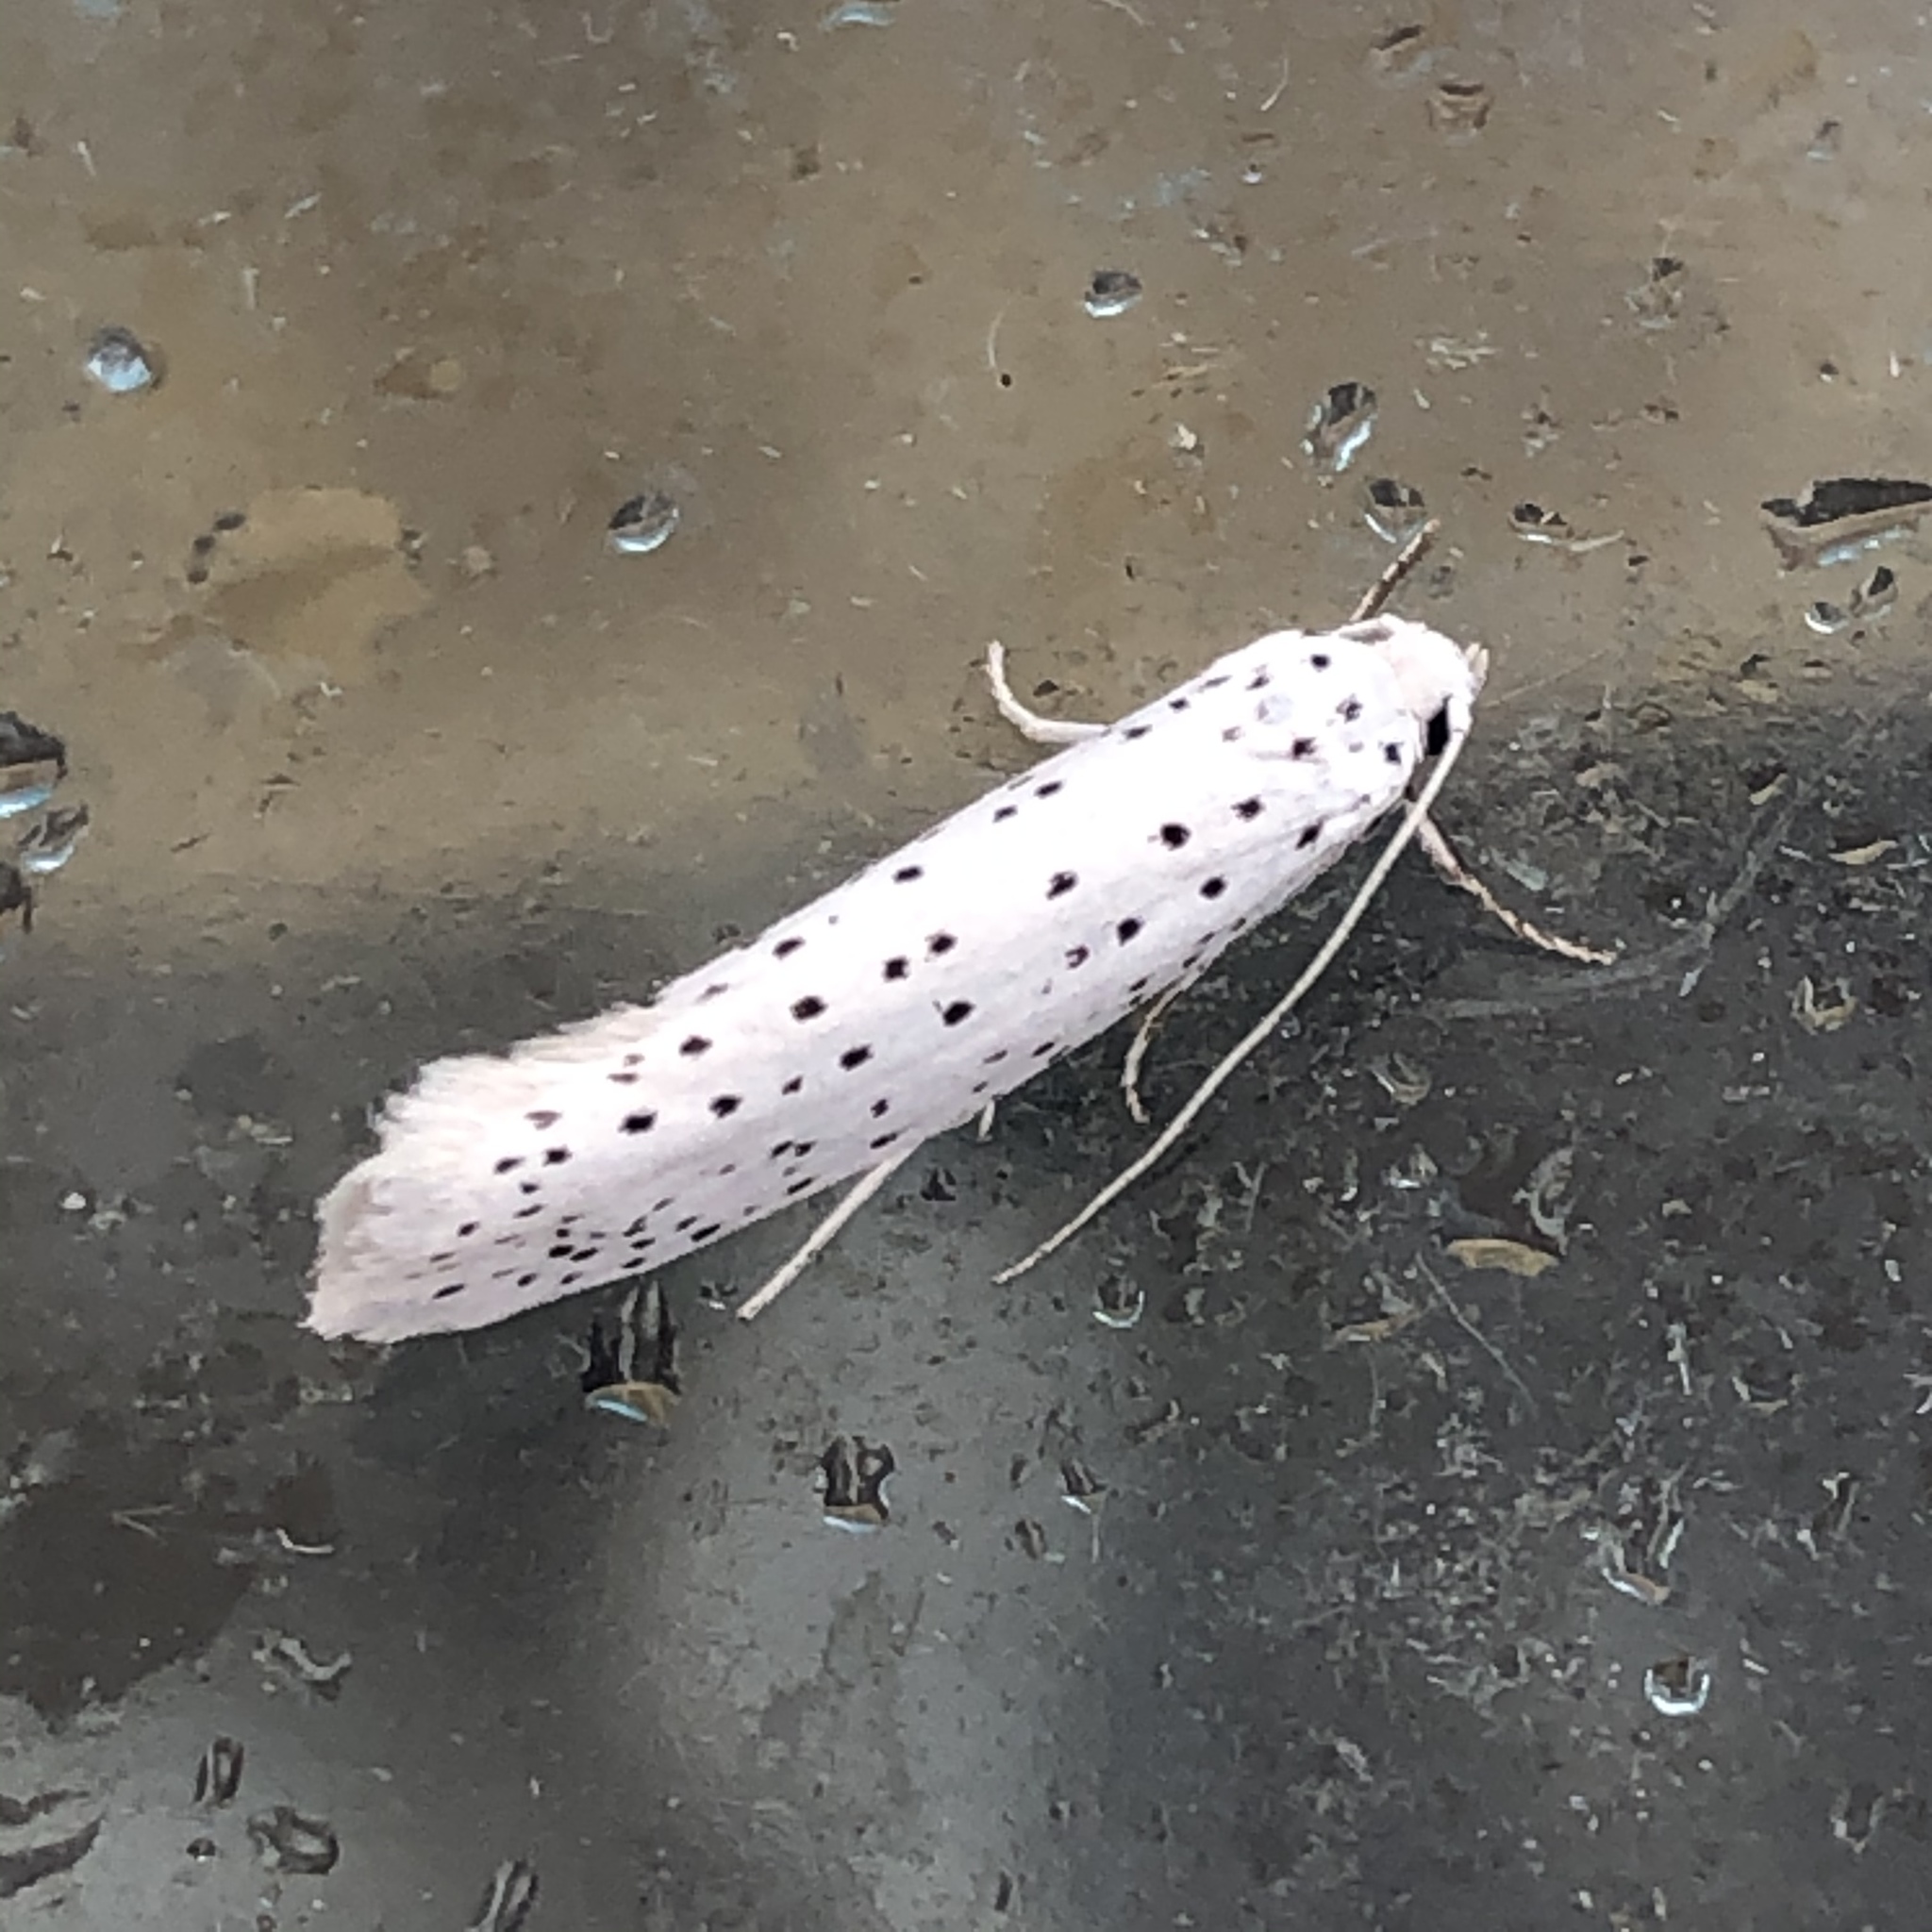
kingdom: Animalia
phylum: Arthropoda
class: Insecta
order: Lepidoptera
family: Yponomeutidae
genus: Yponomeuta
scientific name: Yponomeuta evonymella
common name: Bird-cherry ermine
